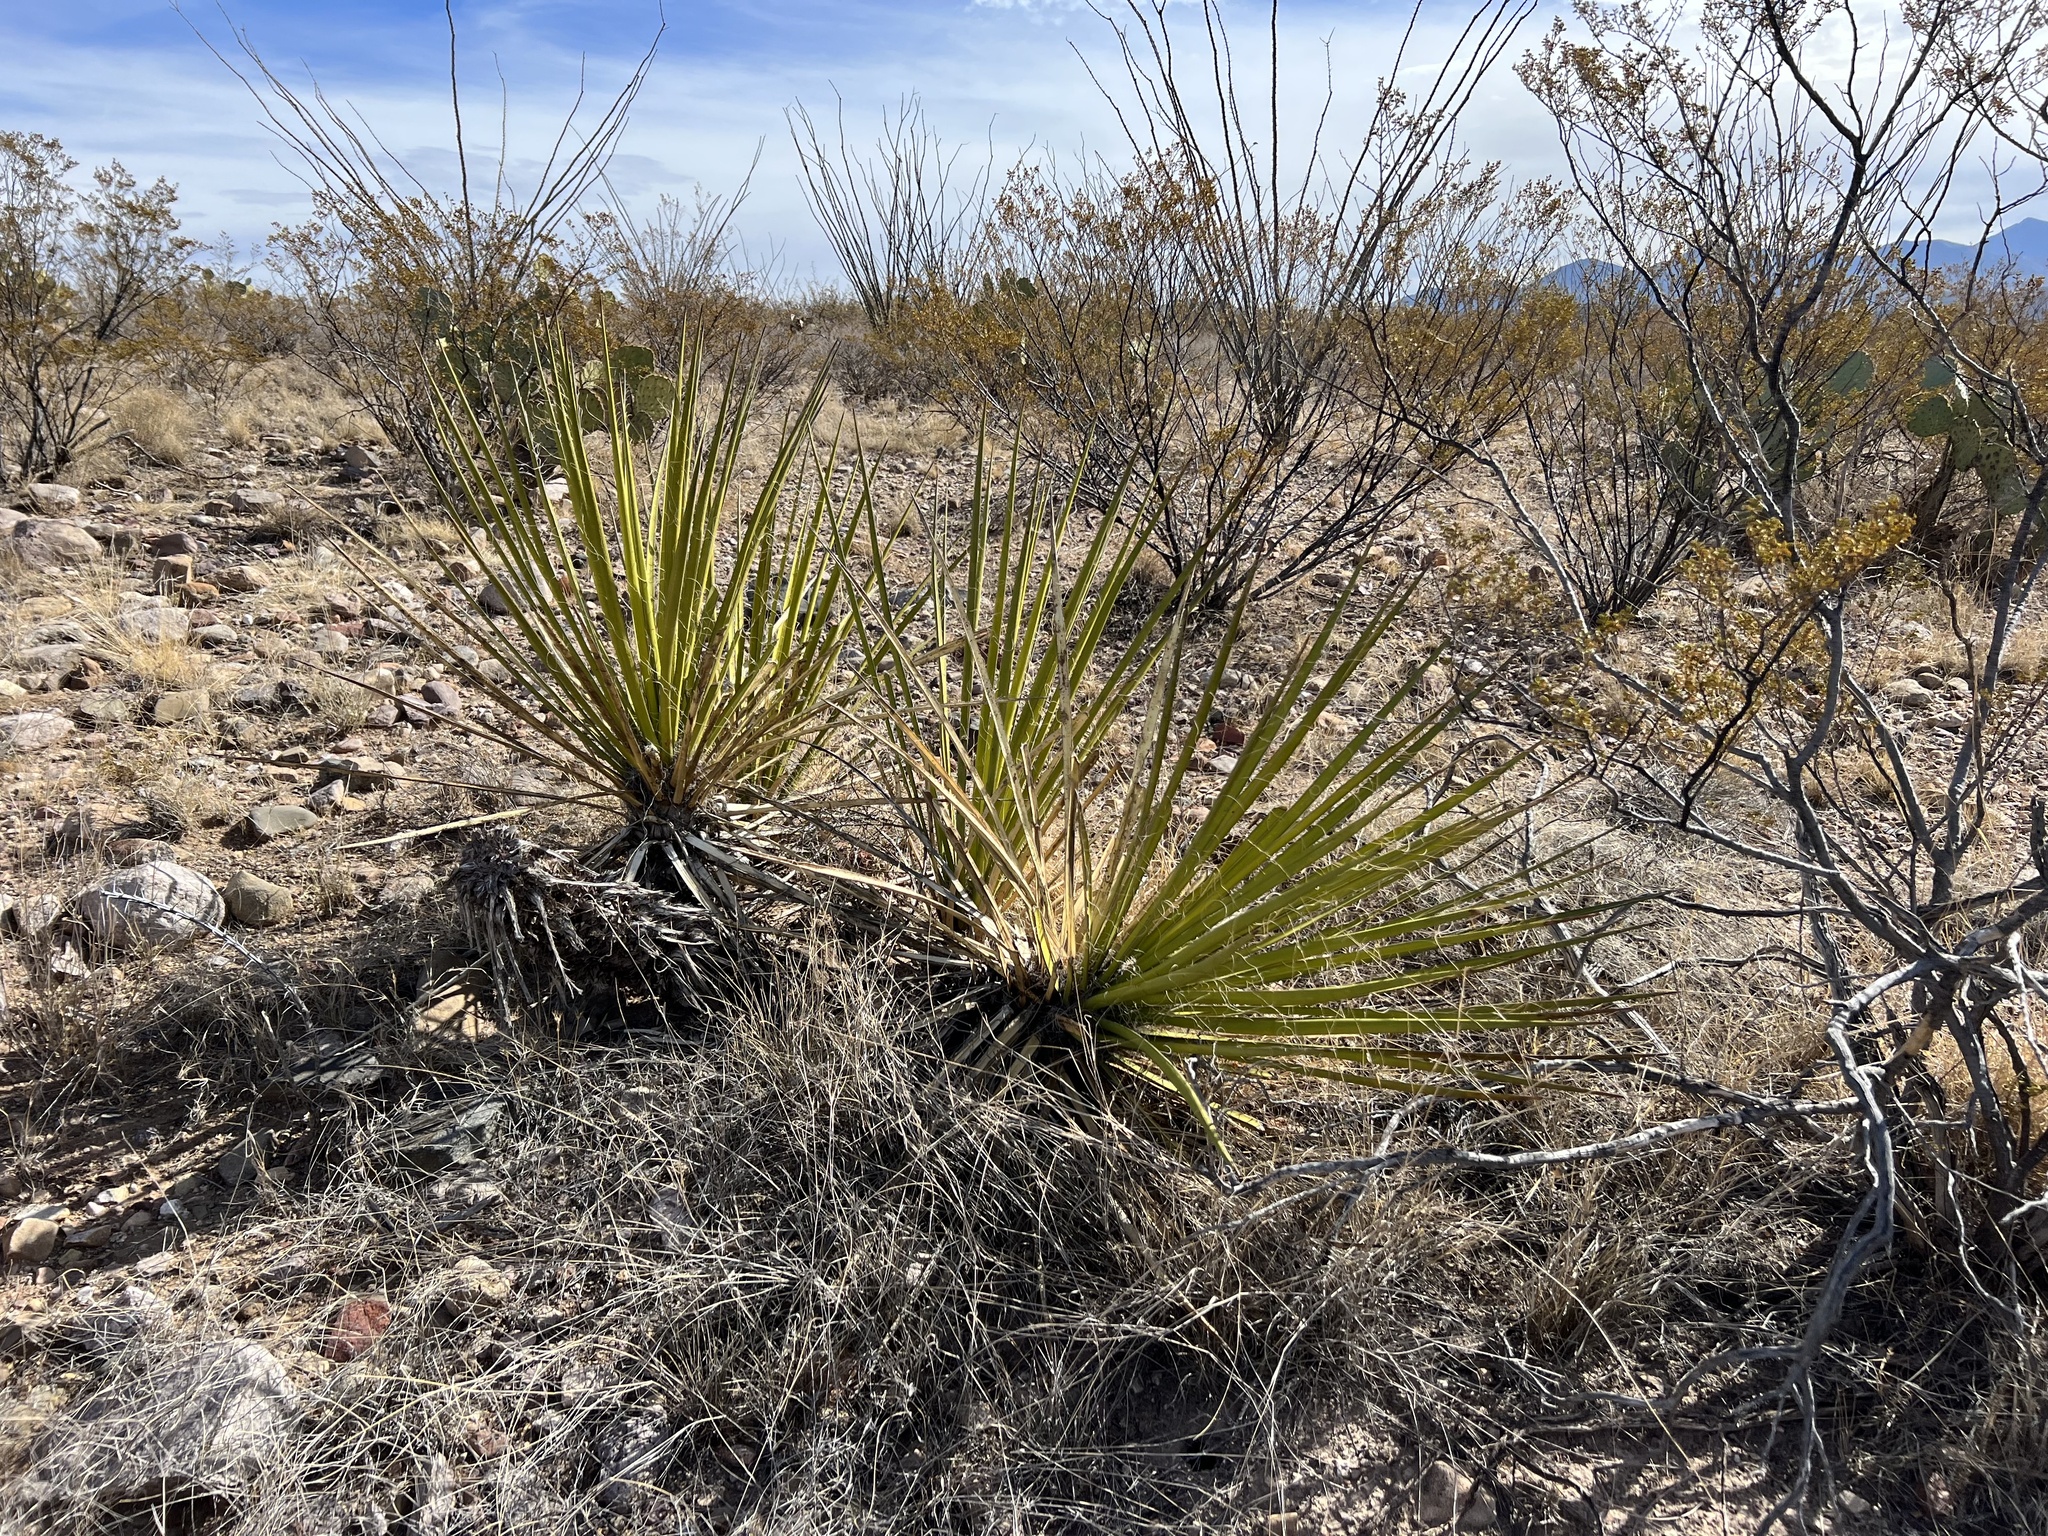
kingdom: Plantae
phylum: Tracheophyta
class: Liliopsida
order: Asparagales
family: Asparagaceae
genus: Yucca
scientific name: Yucca baccata
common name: Banana yucca
